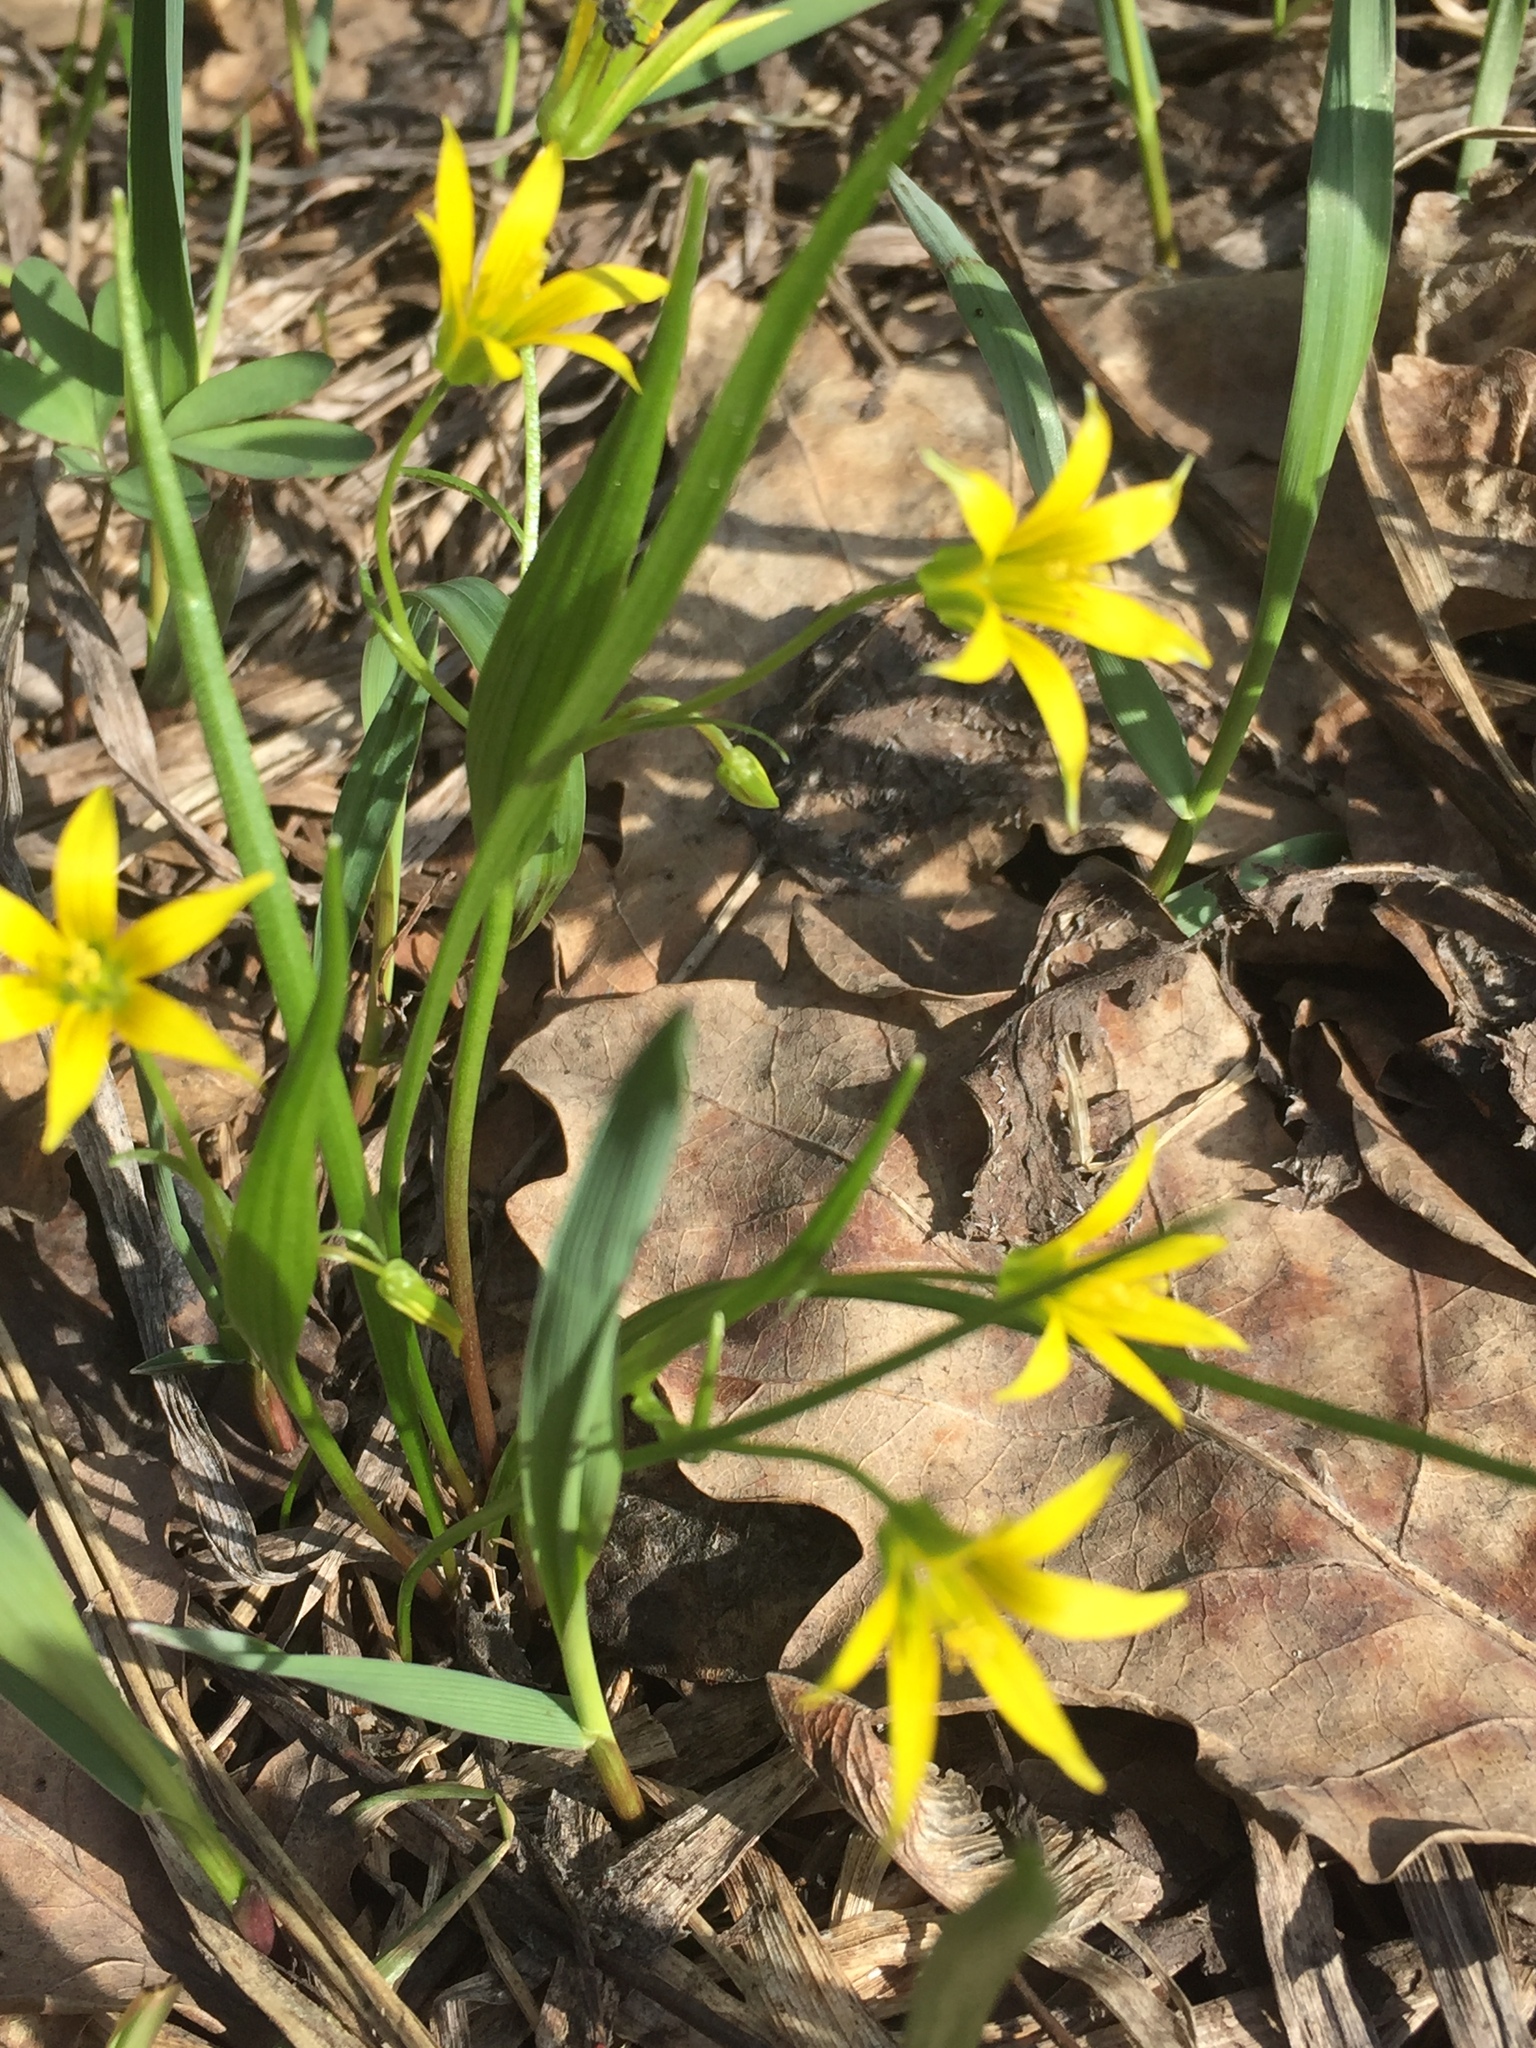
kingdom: Plantae
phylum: Tracheophyta
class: Liliopsida
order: Liliales
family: Liliaceae
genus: Gagea
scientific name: Gagea minima
